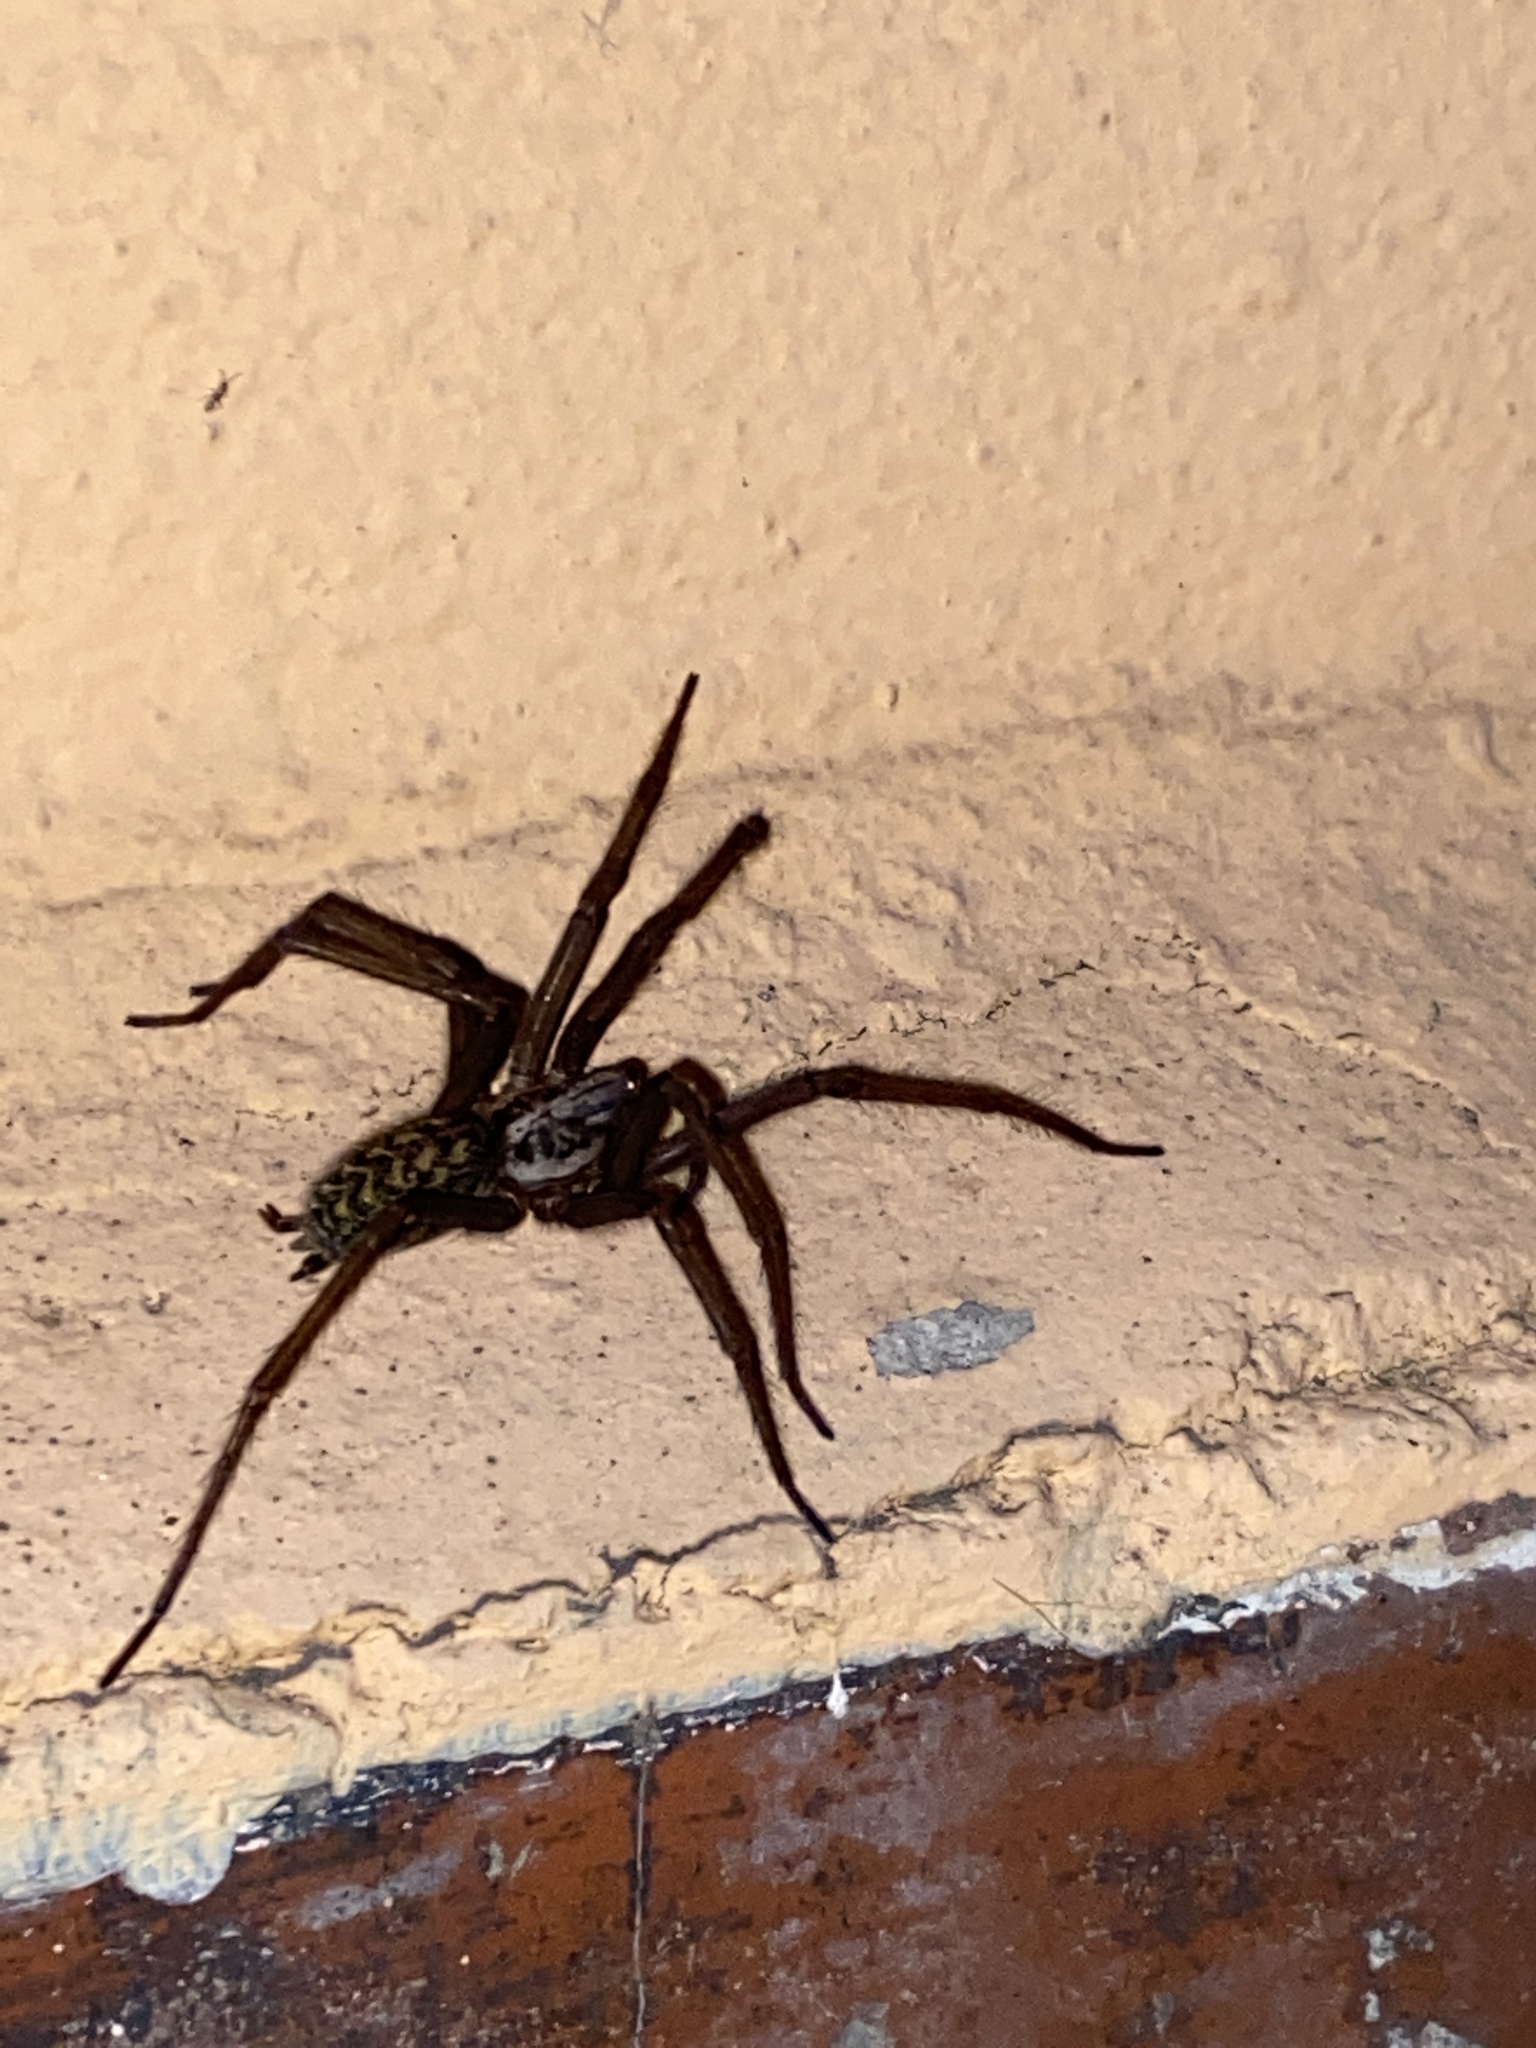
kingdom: Animalia
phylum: Arthropoda
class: Arachnida
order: Araneae
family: Agelenidae
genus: Eratigena
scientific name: Eratigena atrica
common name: Giant house spider
